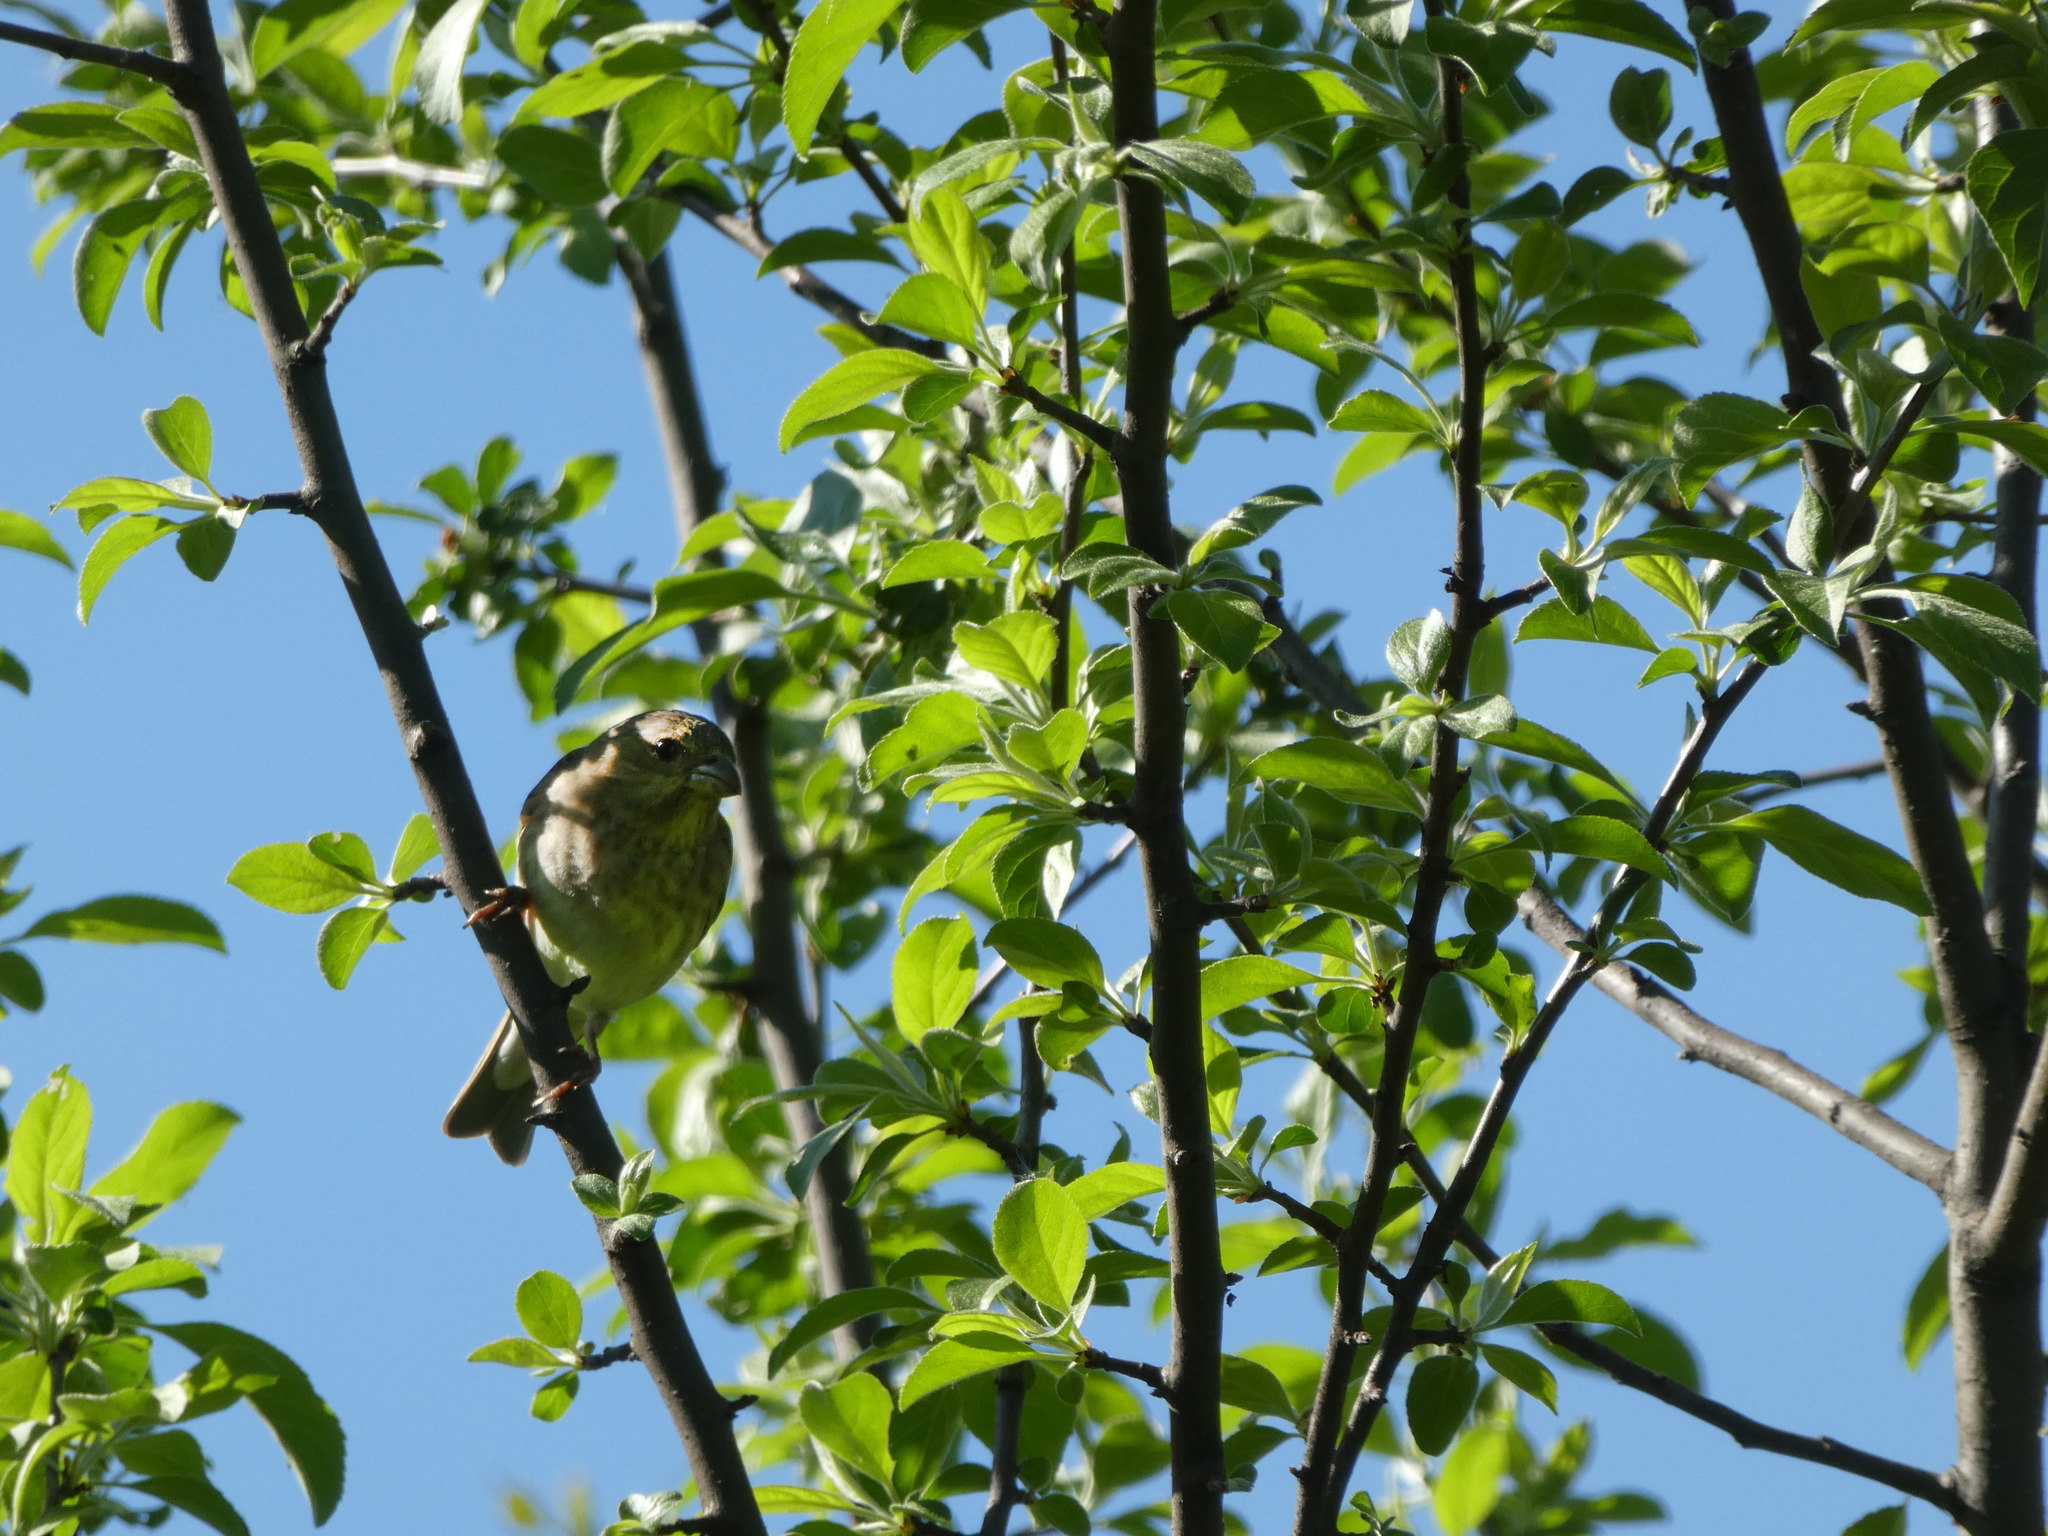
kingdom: Animalia
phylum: Chordata
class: Aves
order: Passeriformes
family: Fringillidae
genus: Carpodacus
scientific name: Carpodacus erythrinus
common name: Common rosefinch
